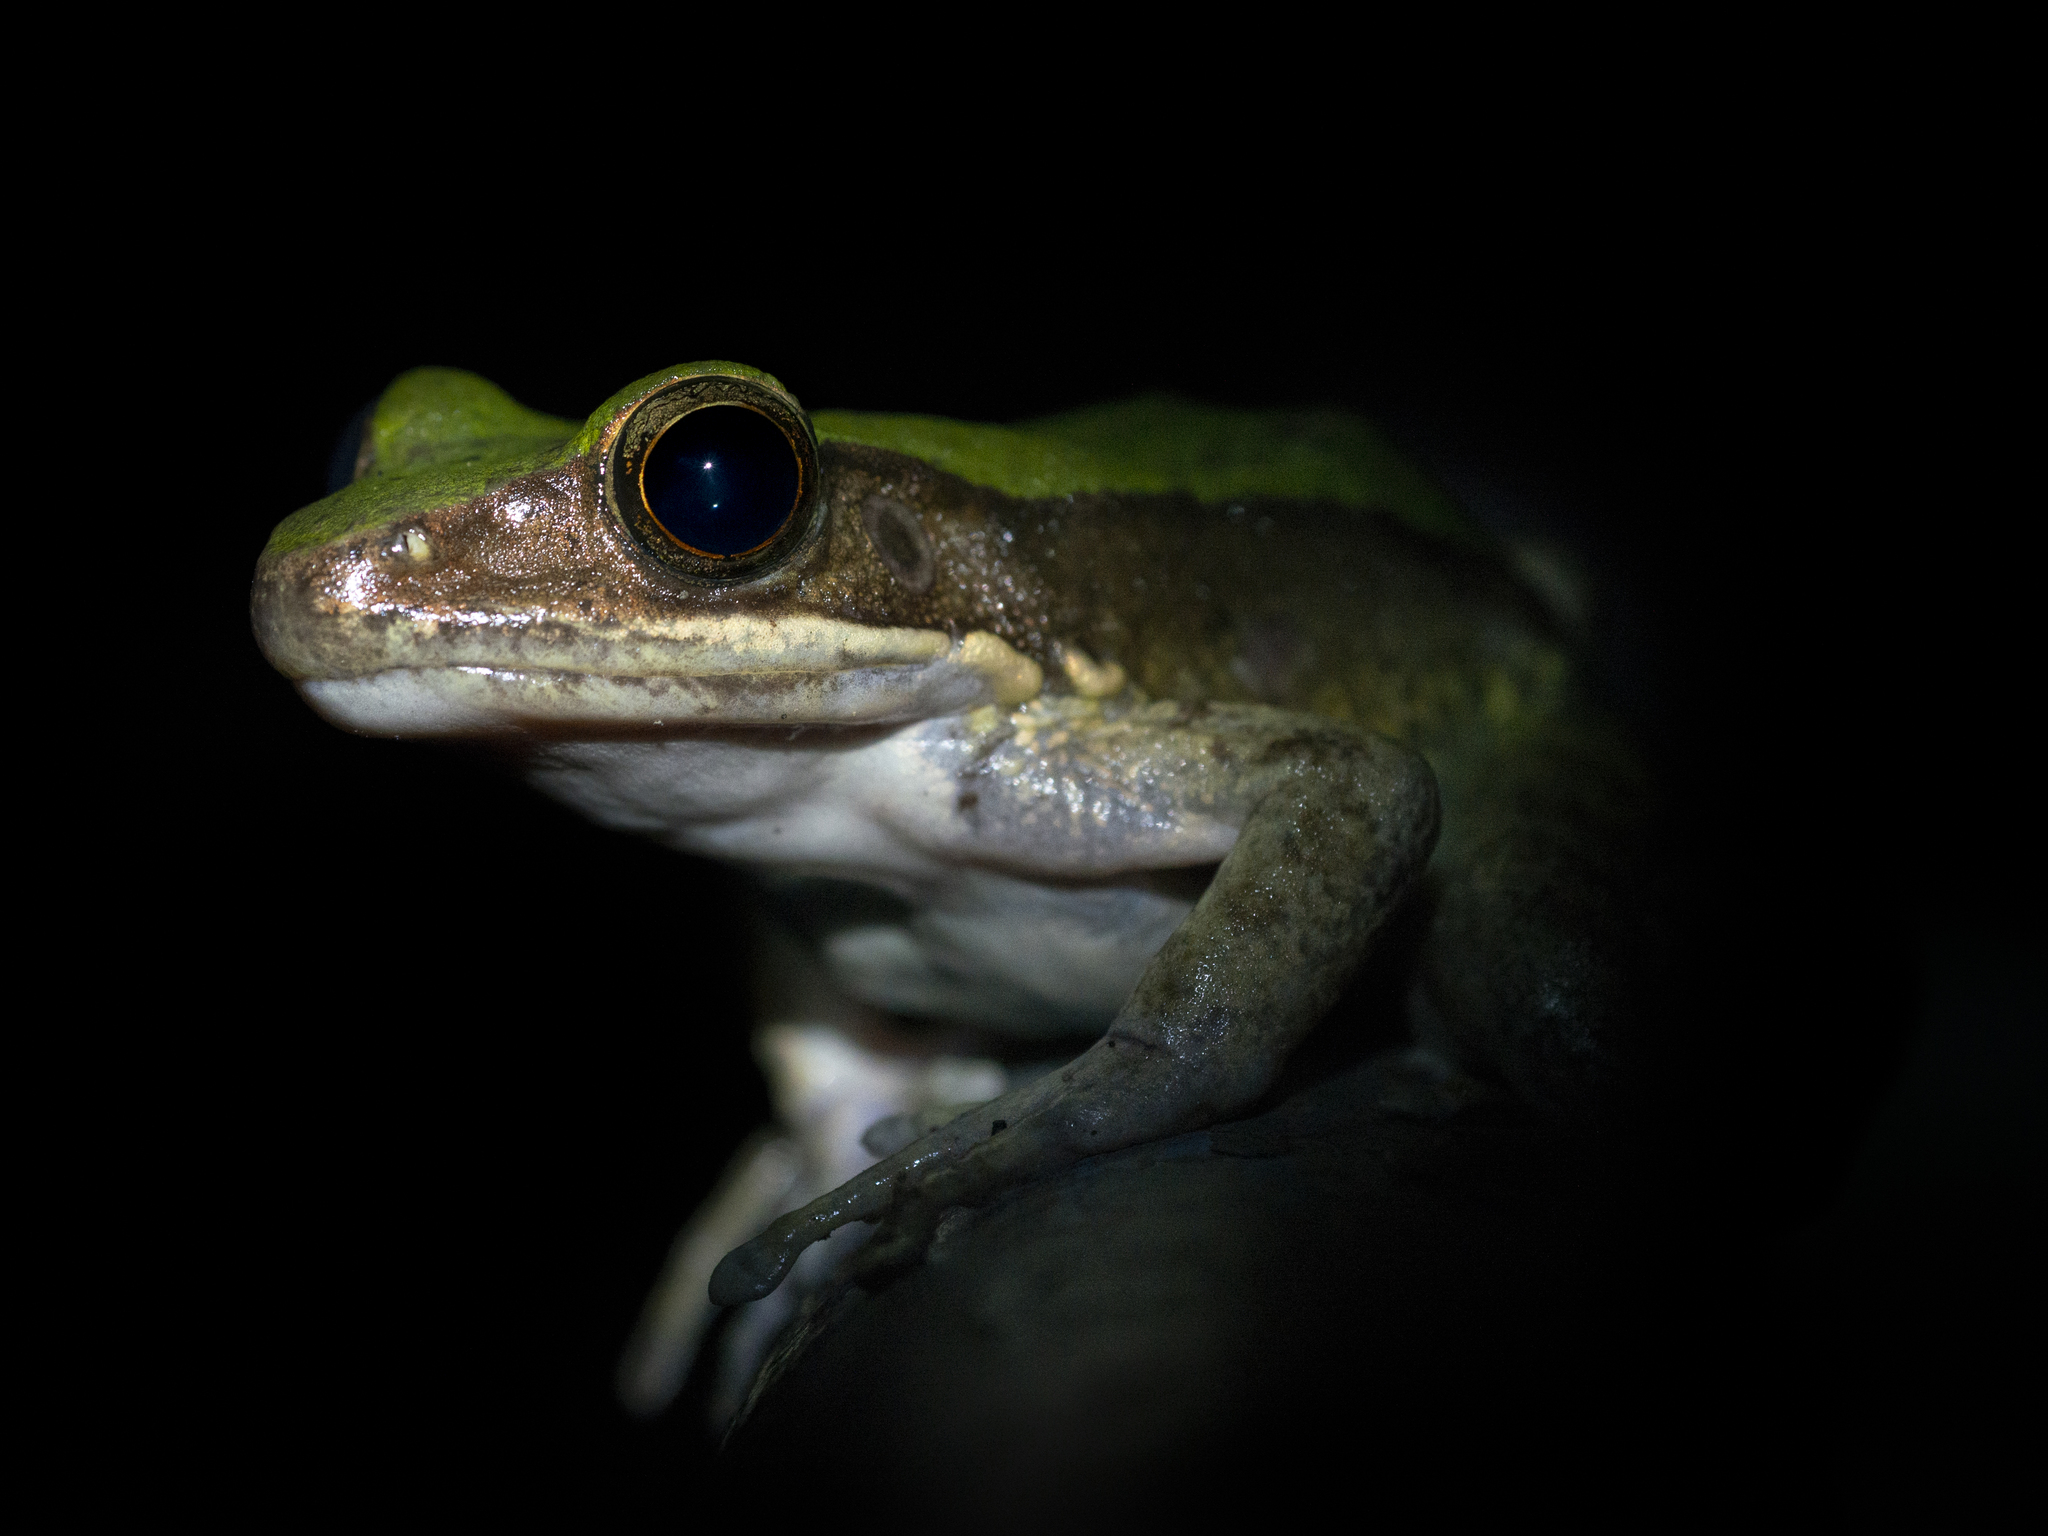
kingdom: Animalia
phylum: Chordata
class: Amphibia
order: Anura
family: Ranidae
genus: Odorrana
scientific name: Odorrana graminea
